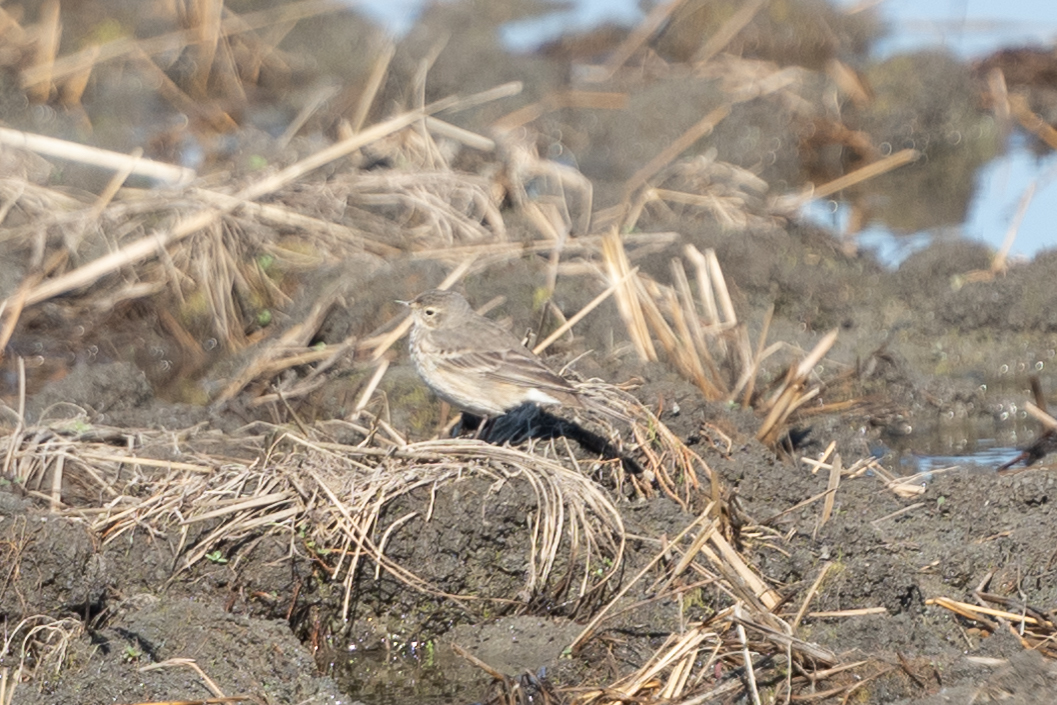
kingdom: Animalia
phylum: Chordata
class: Aves
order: Passeriformes
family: Motacillidae
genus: Anthus
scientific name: Anthus rubescens
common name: Buff-bellied pipit
